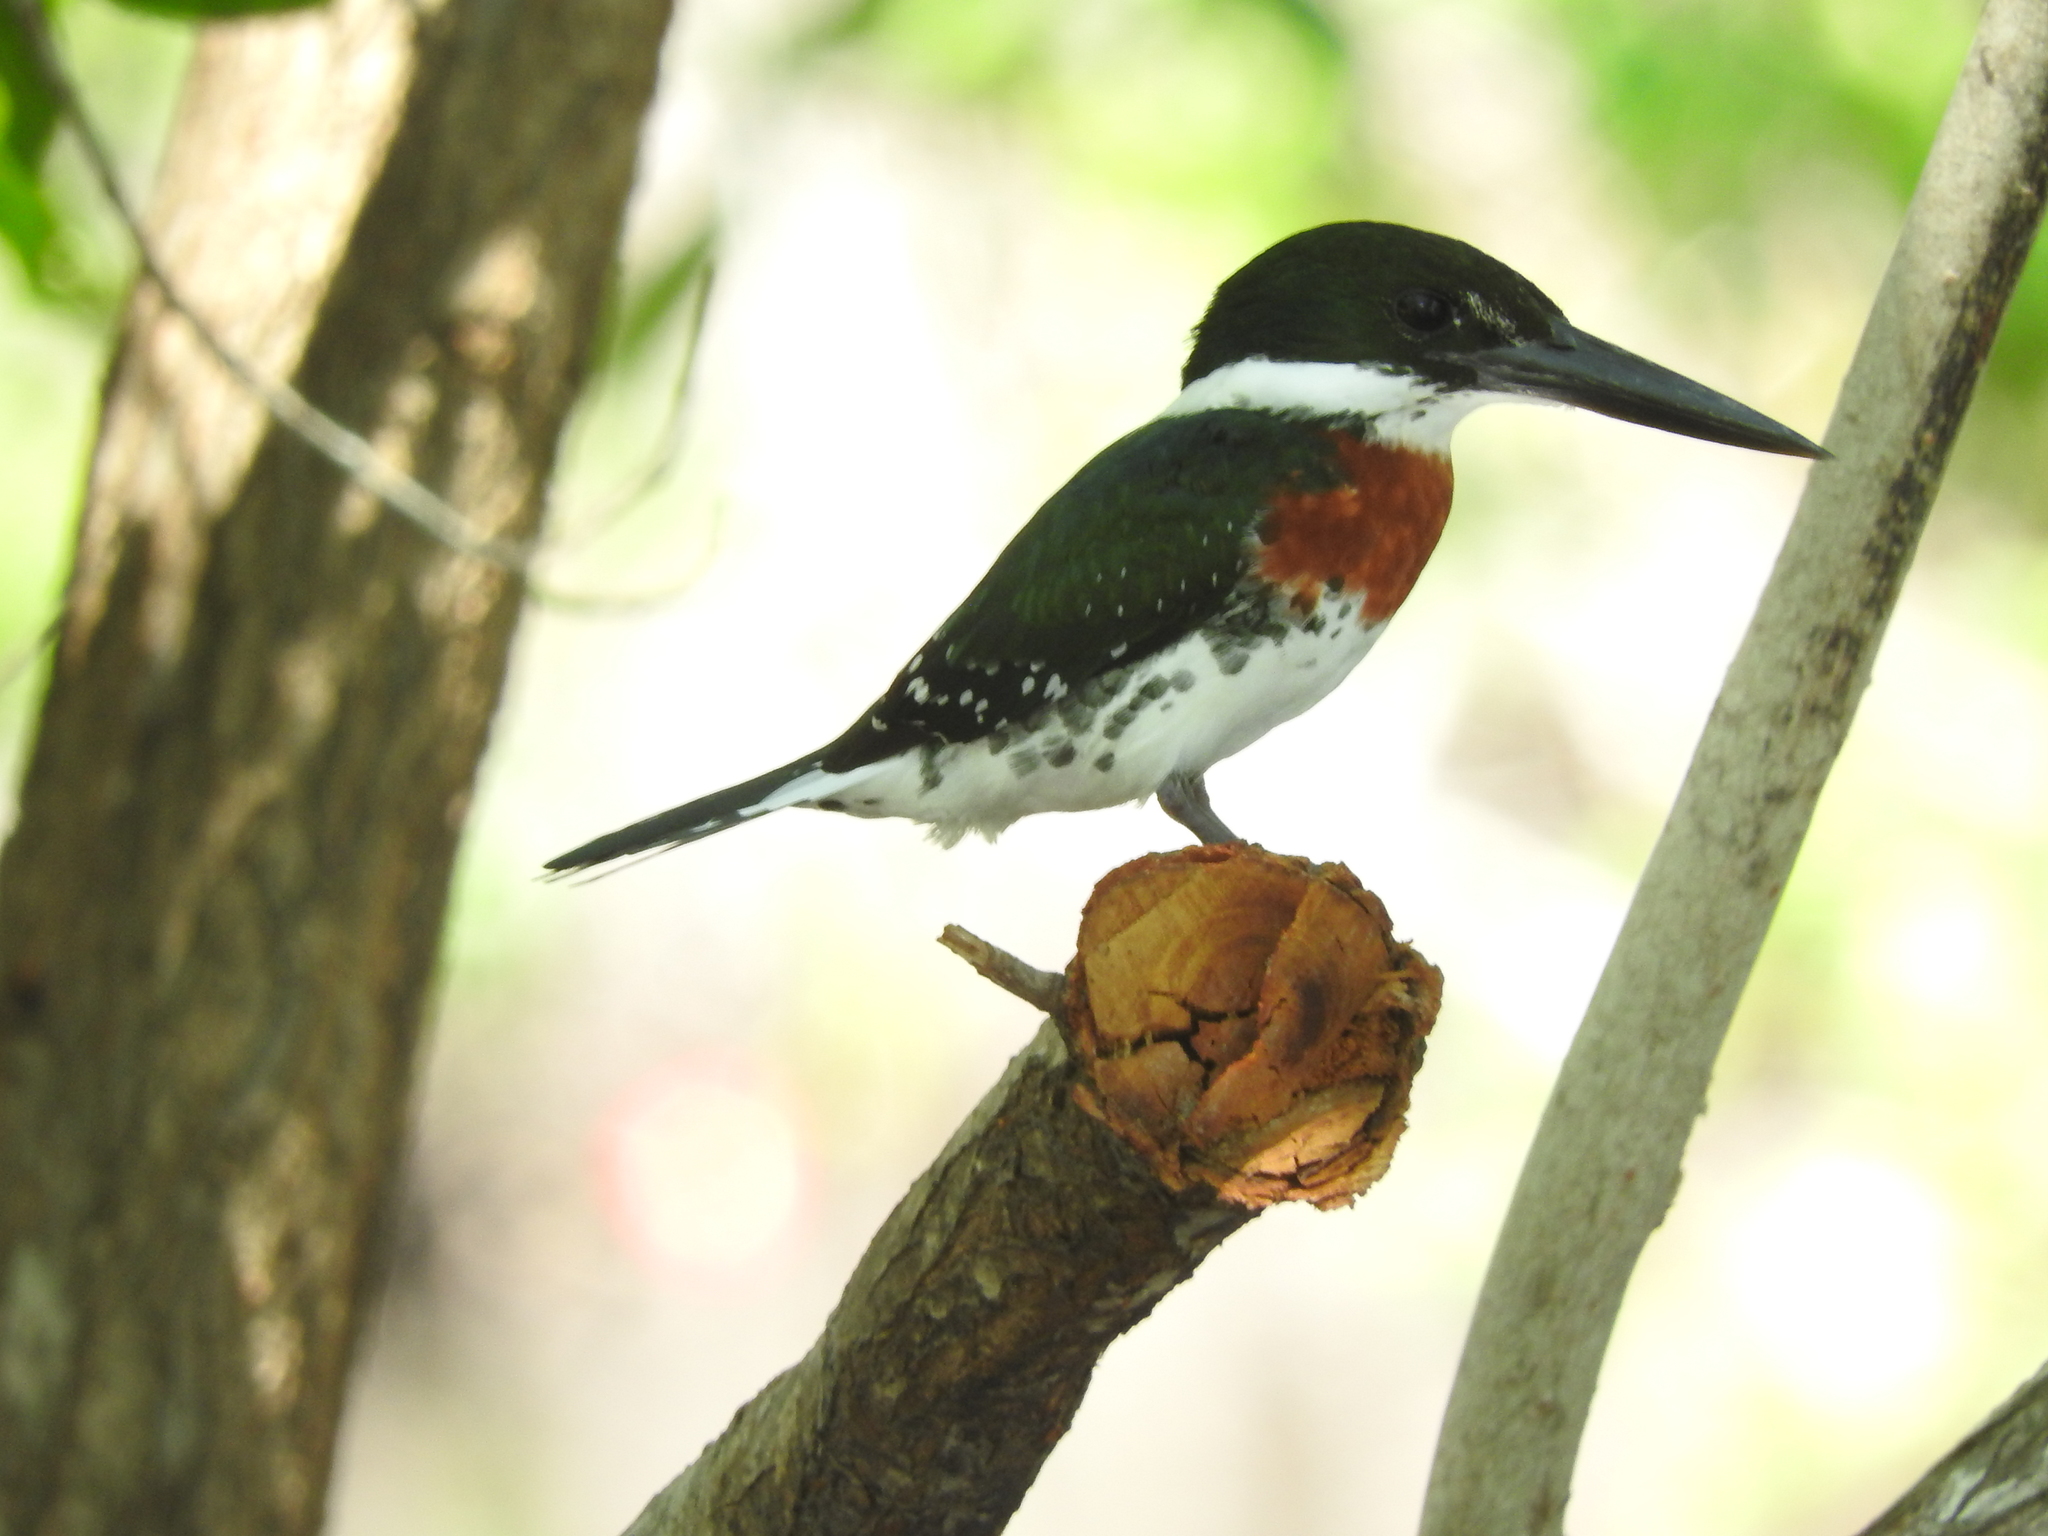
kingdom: Animalia
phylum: Chordata
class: Aves
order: Coraciiformes
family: Alcedinidae
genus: Chloroceryle
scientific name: Chloroceryle americana
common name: Green kingfisher
